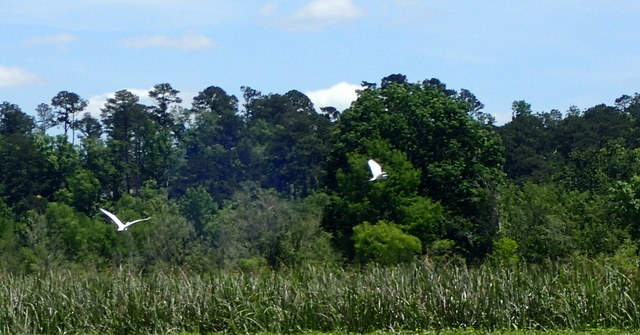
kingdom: Animalia
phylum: Chordata
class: Aves
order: Pelecaniformes
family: Ardeidae
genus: Ardea
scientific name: Ardea alba
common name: Great egret
